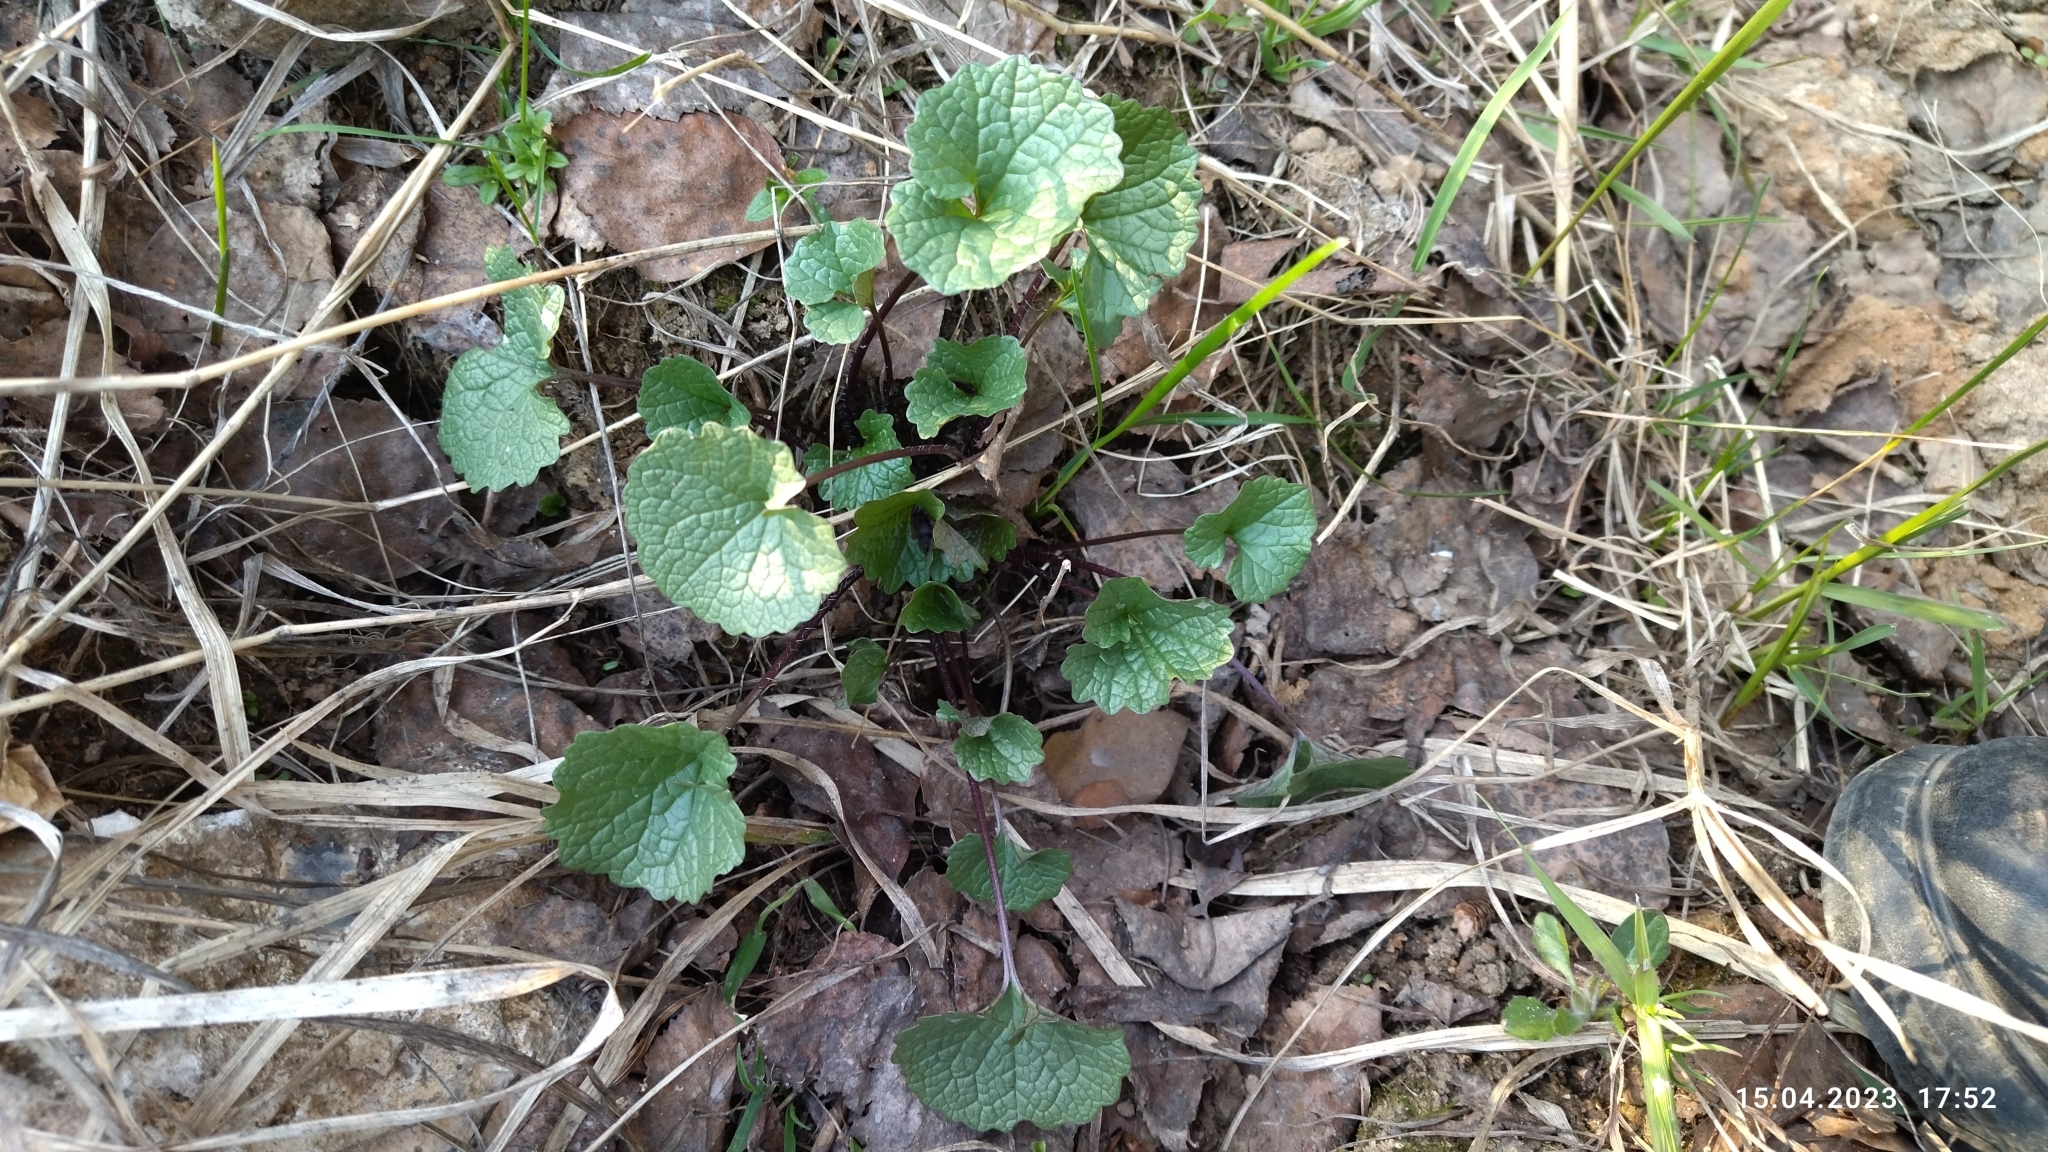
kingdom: Plantae
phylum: Tracheophyta
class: Magnoliopsida
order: Brassicales
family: Brassicaceae
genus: Alliaria
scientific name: Alliaria petiolata
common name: Garlic mustard
